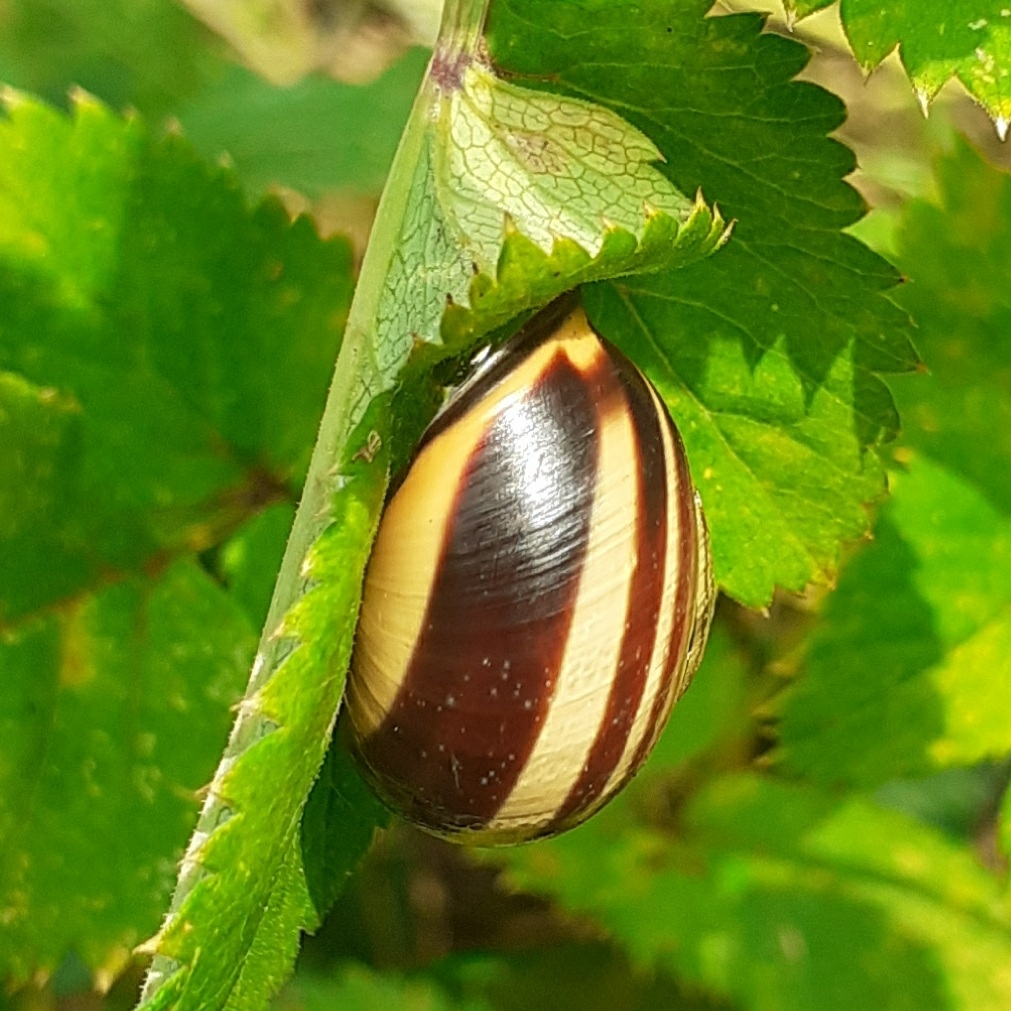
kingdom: Animalia
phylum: Mollusca
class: Gastropoda
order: Stylommatophora
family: Helicidae
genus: Cepaea
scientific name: Cepaea nemoralis
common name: Grovesnail
